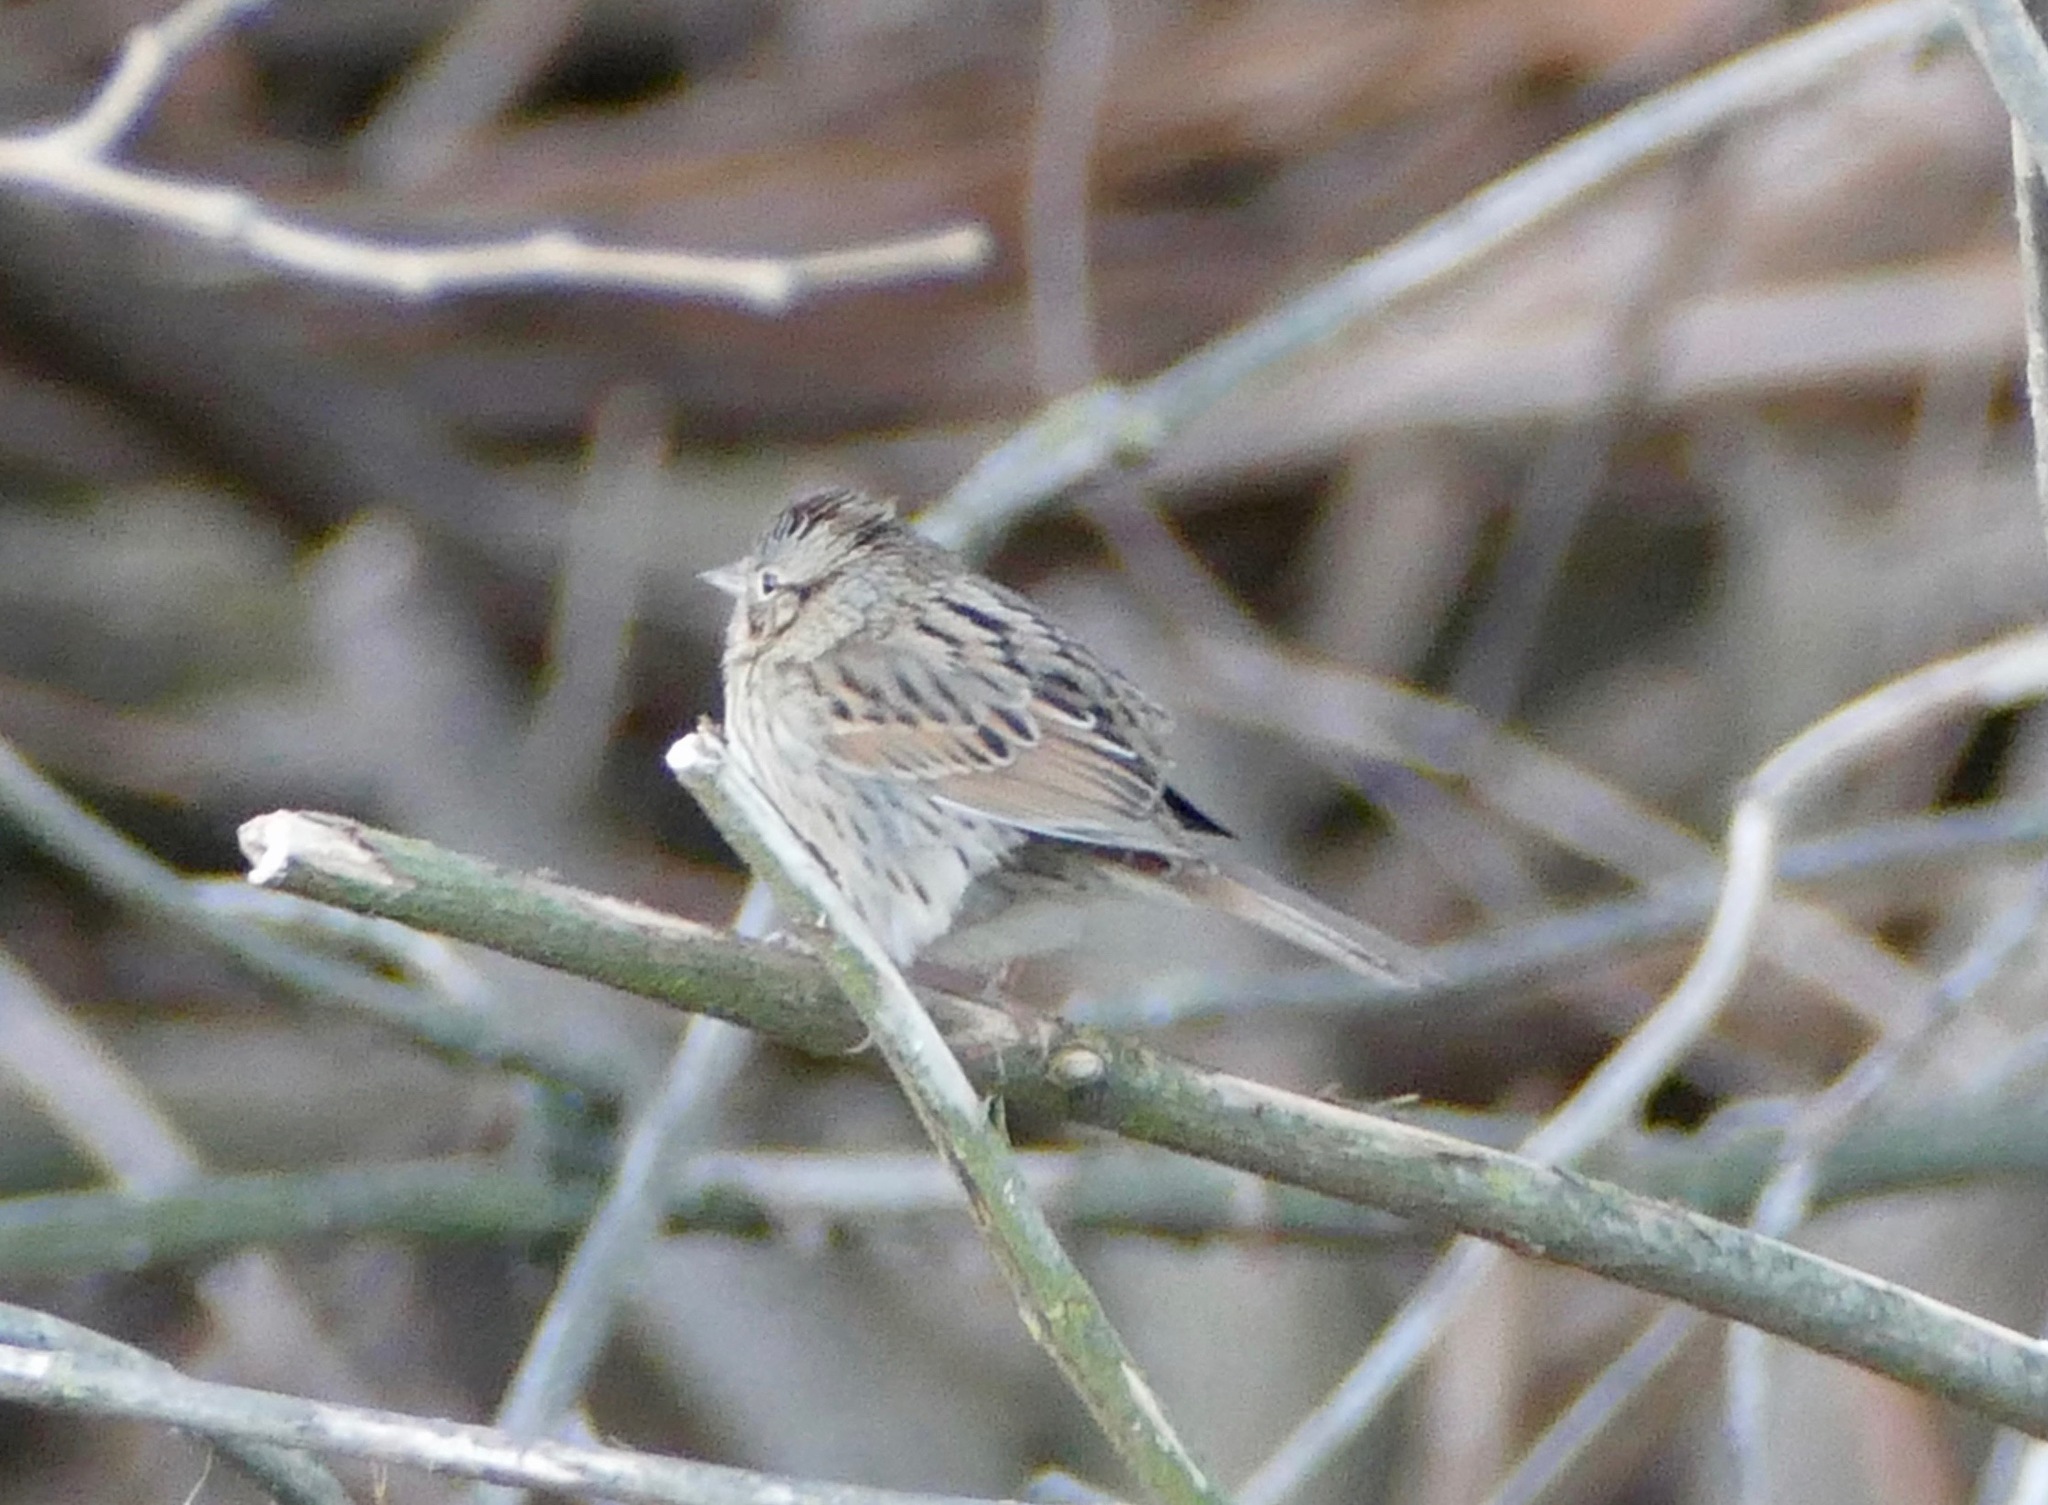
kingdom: Animalia
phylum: Chordata
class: Aves
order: Passeriformes
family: Passerellidae
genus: Melospiza
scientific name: Melospiza lincolnii
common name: Lincoln's sparrow
